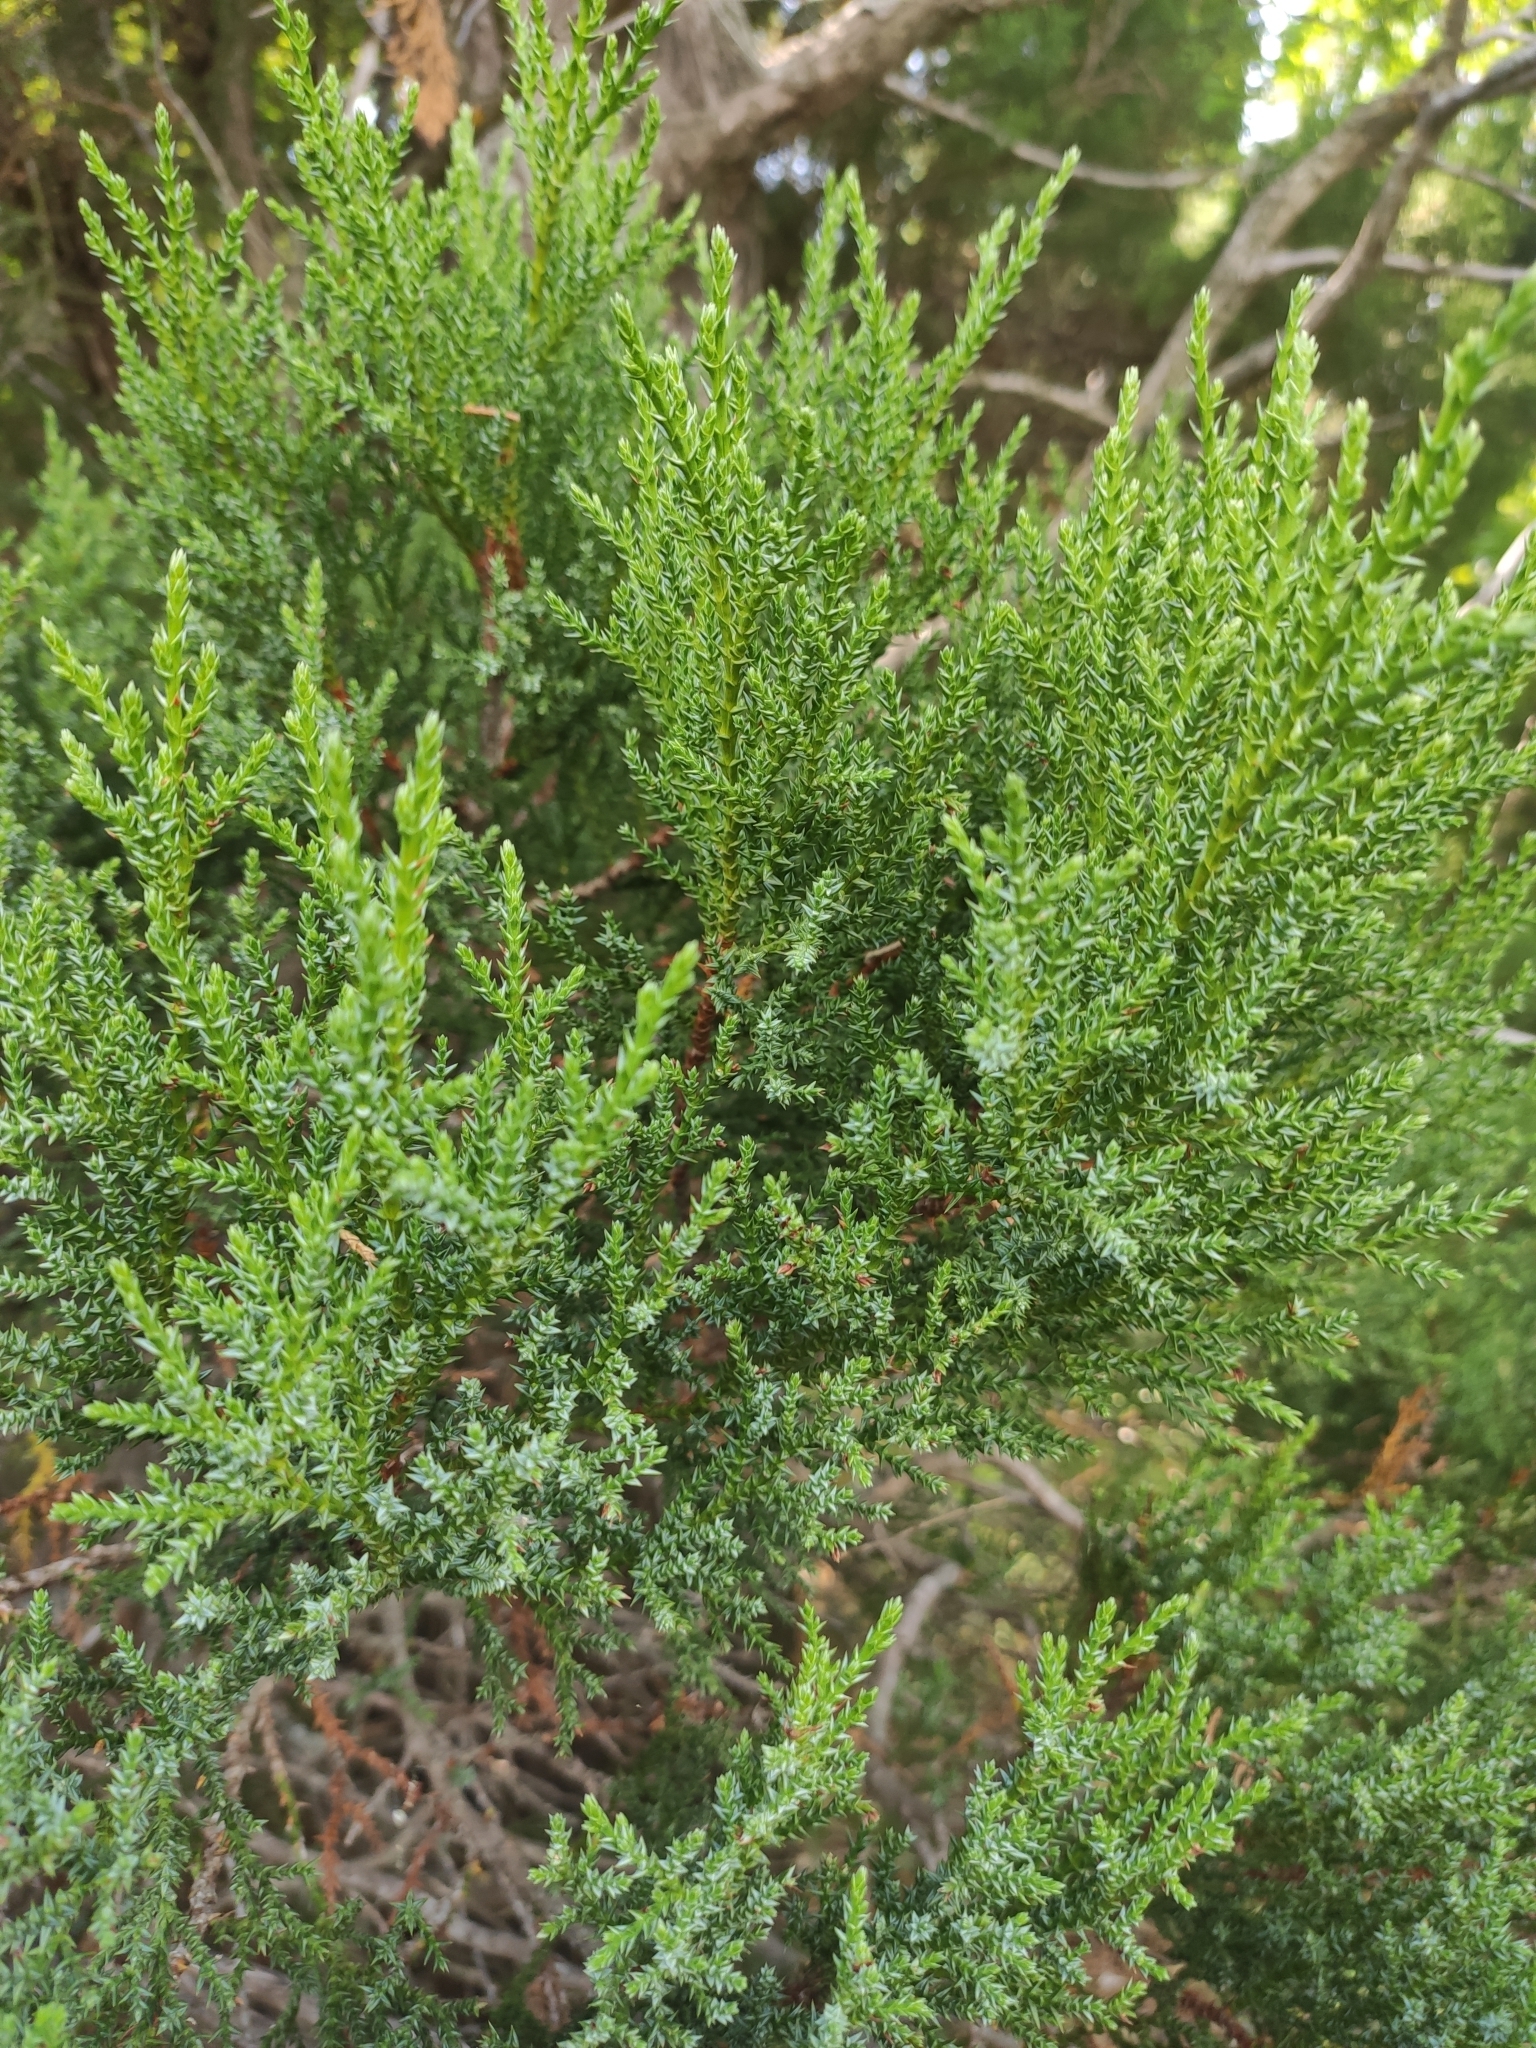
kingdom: Plantae
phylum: Tracheophyta
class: Pinopsida
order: Pinales
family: Cupressaceae
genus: Juniperus
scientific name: Juniperus excelsa
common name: Crimean juniper
